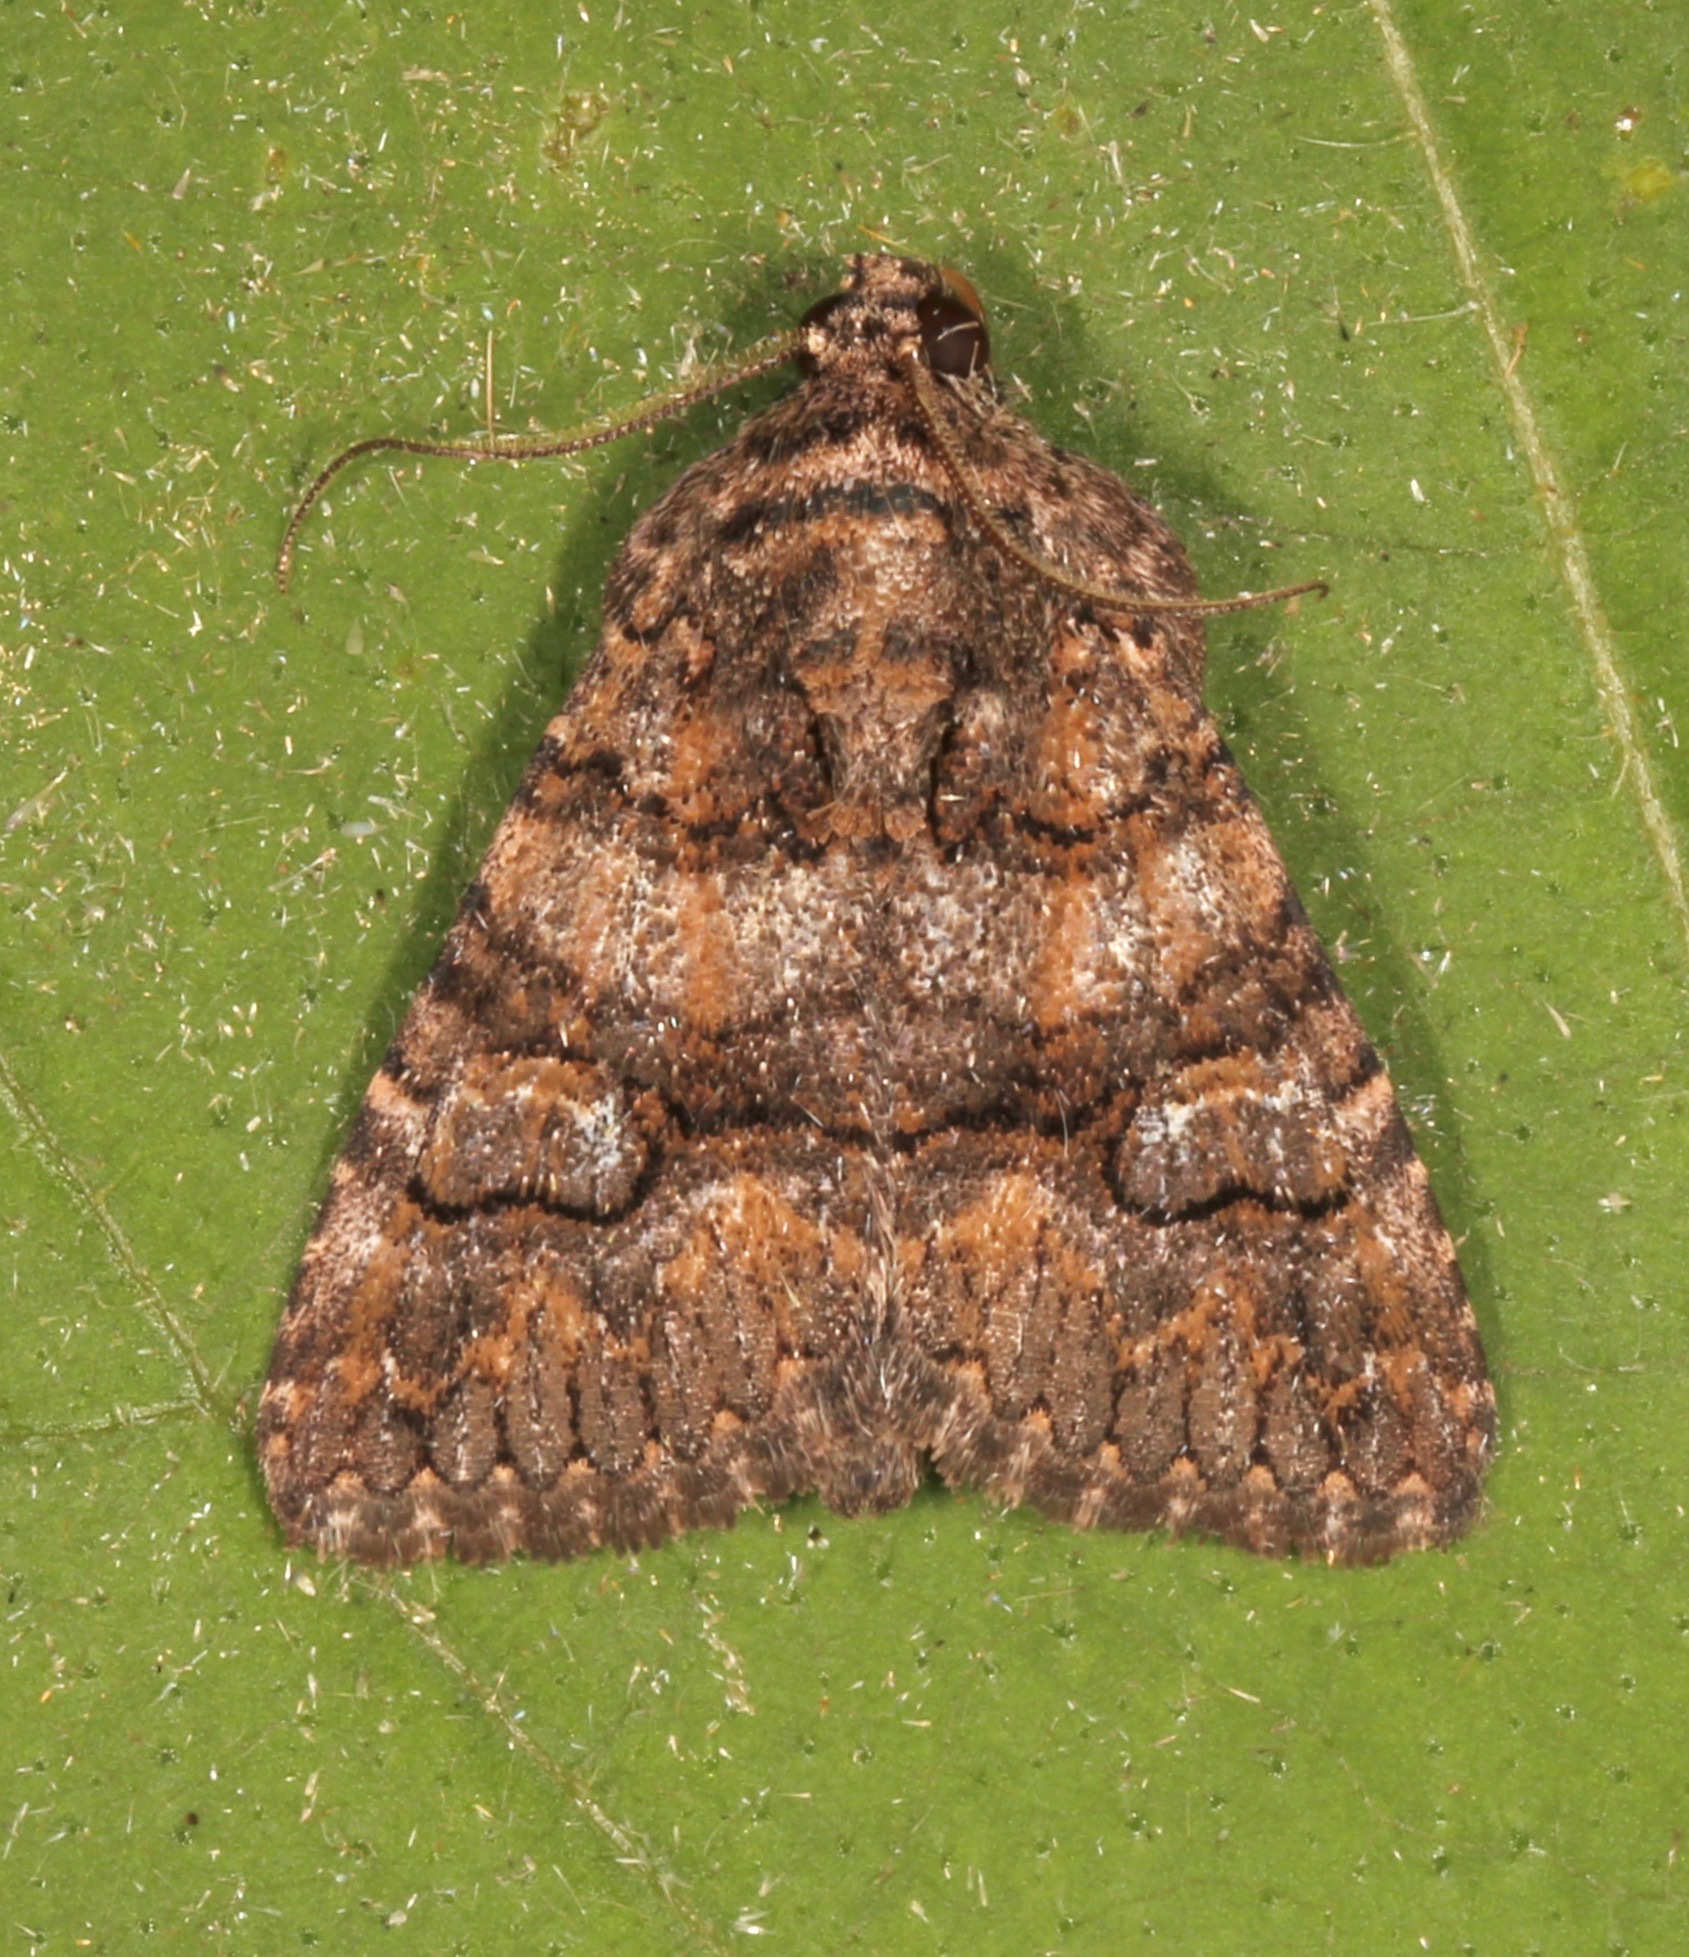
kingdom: Animalia
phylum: Arthropoda
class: Insecta
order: Lepidoptera
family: Erebidae
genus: Elousa
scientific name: Elousa mima
